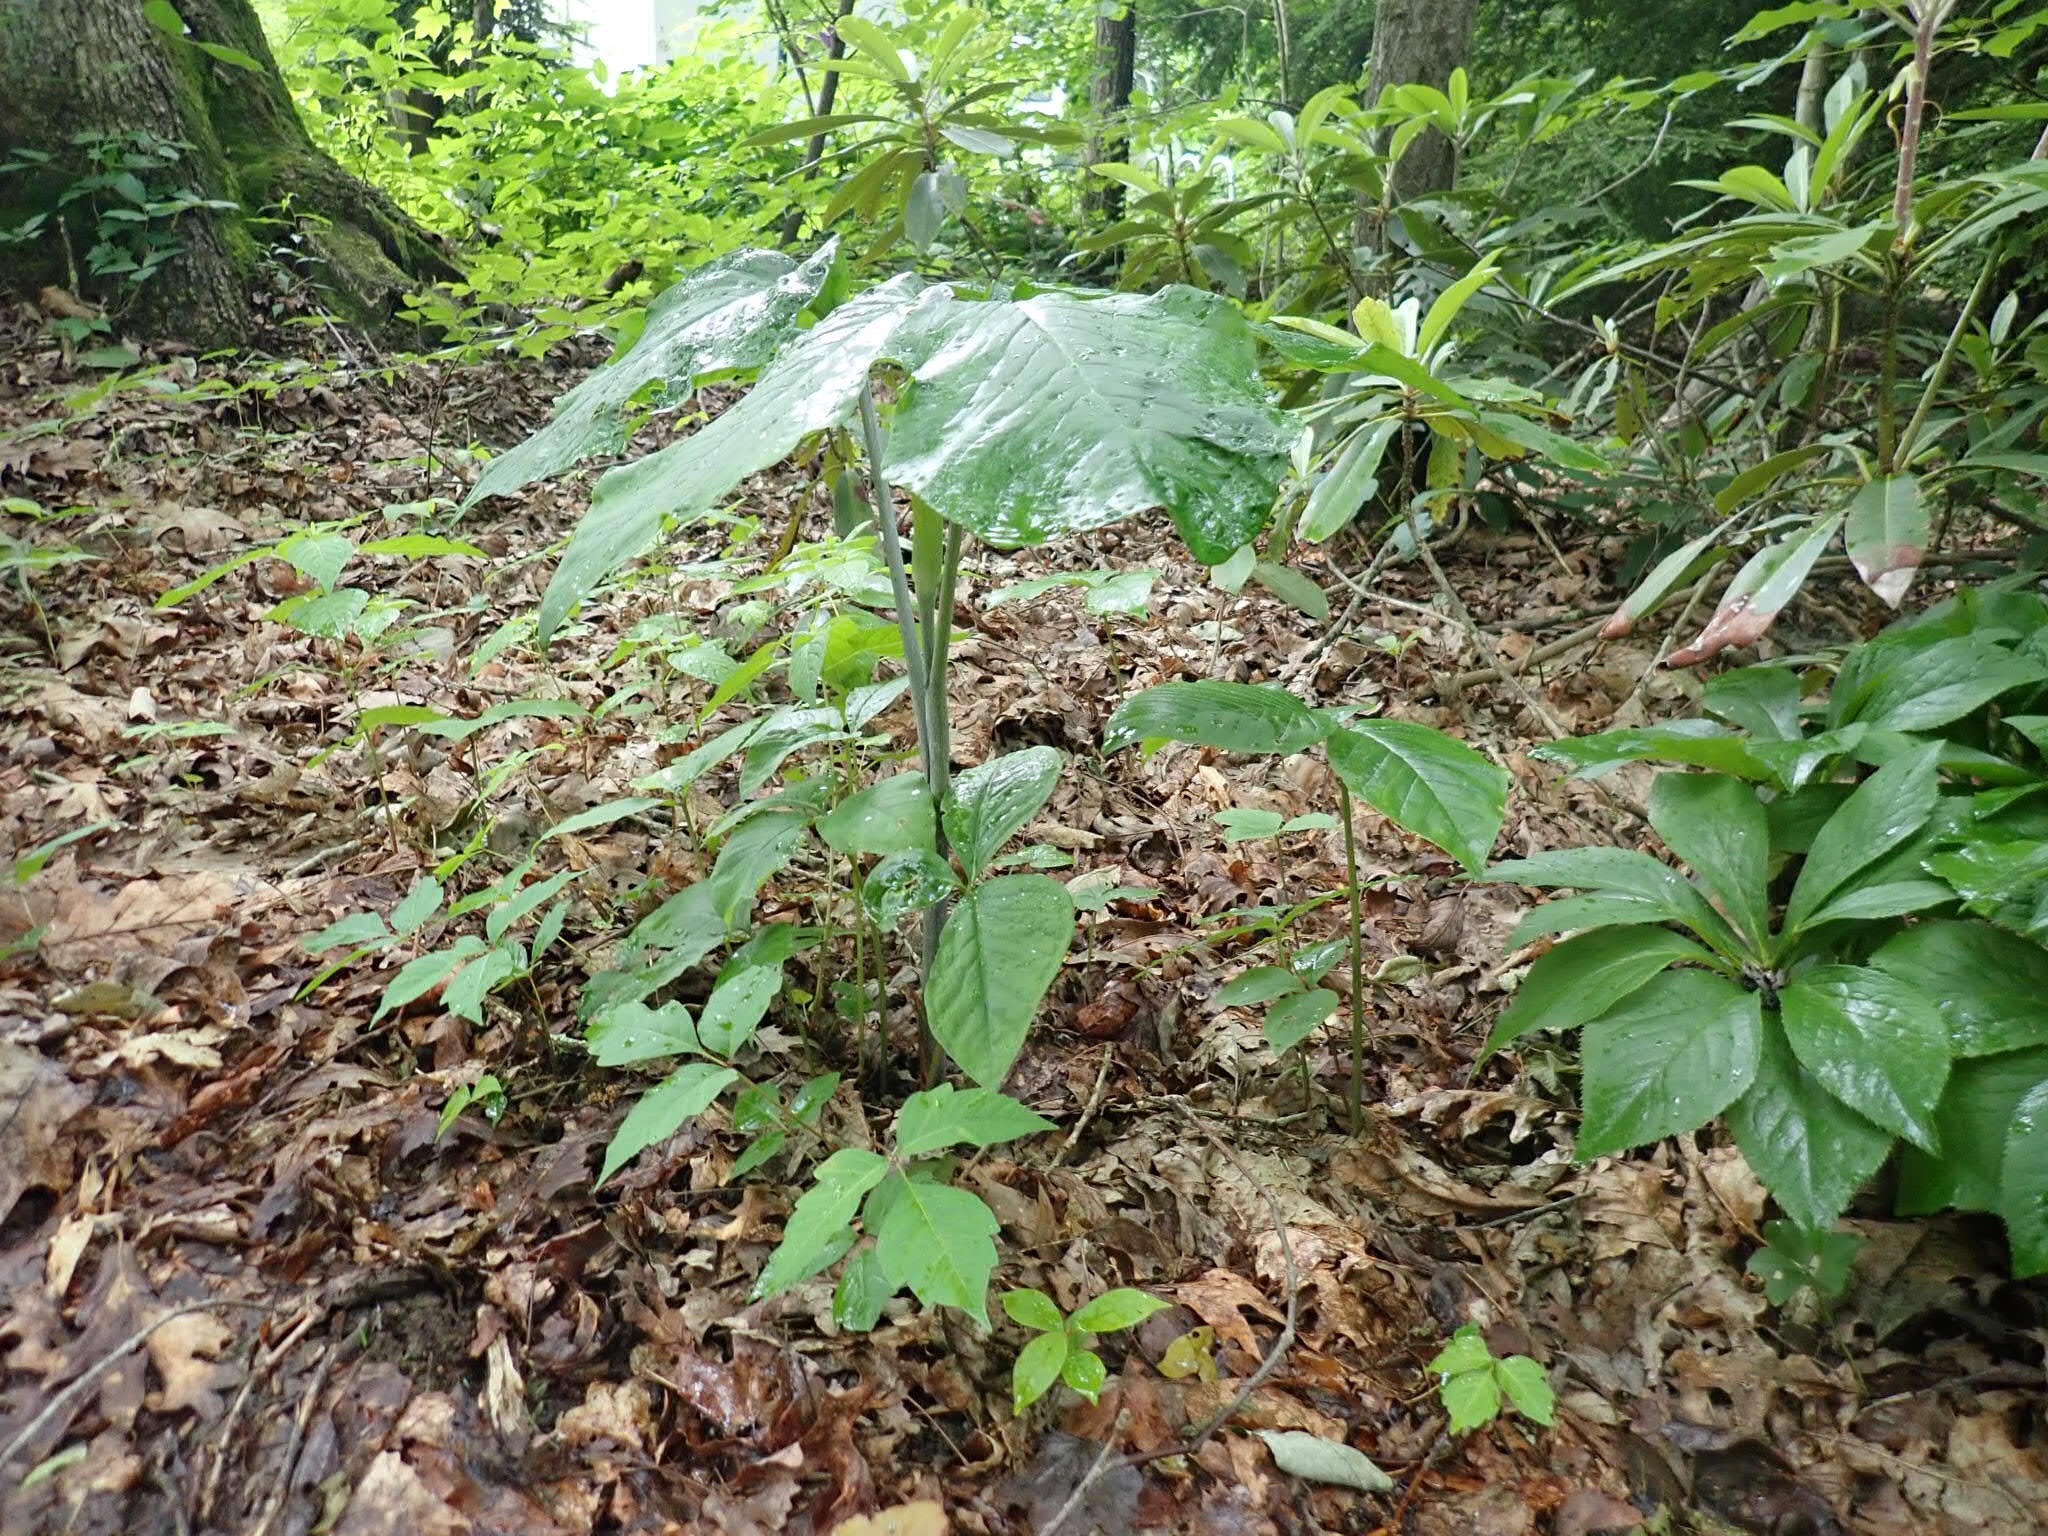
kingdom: Plantae
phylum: Tracheophyta
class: Liliopsida
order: Alismatales
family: Araceae
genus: Arisaema
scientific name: Arisaema pusillum
